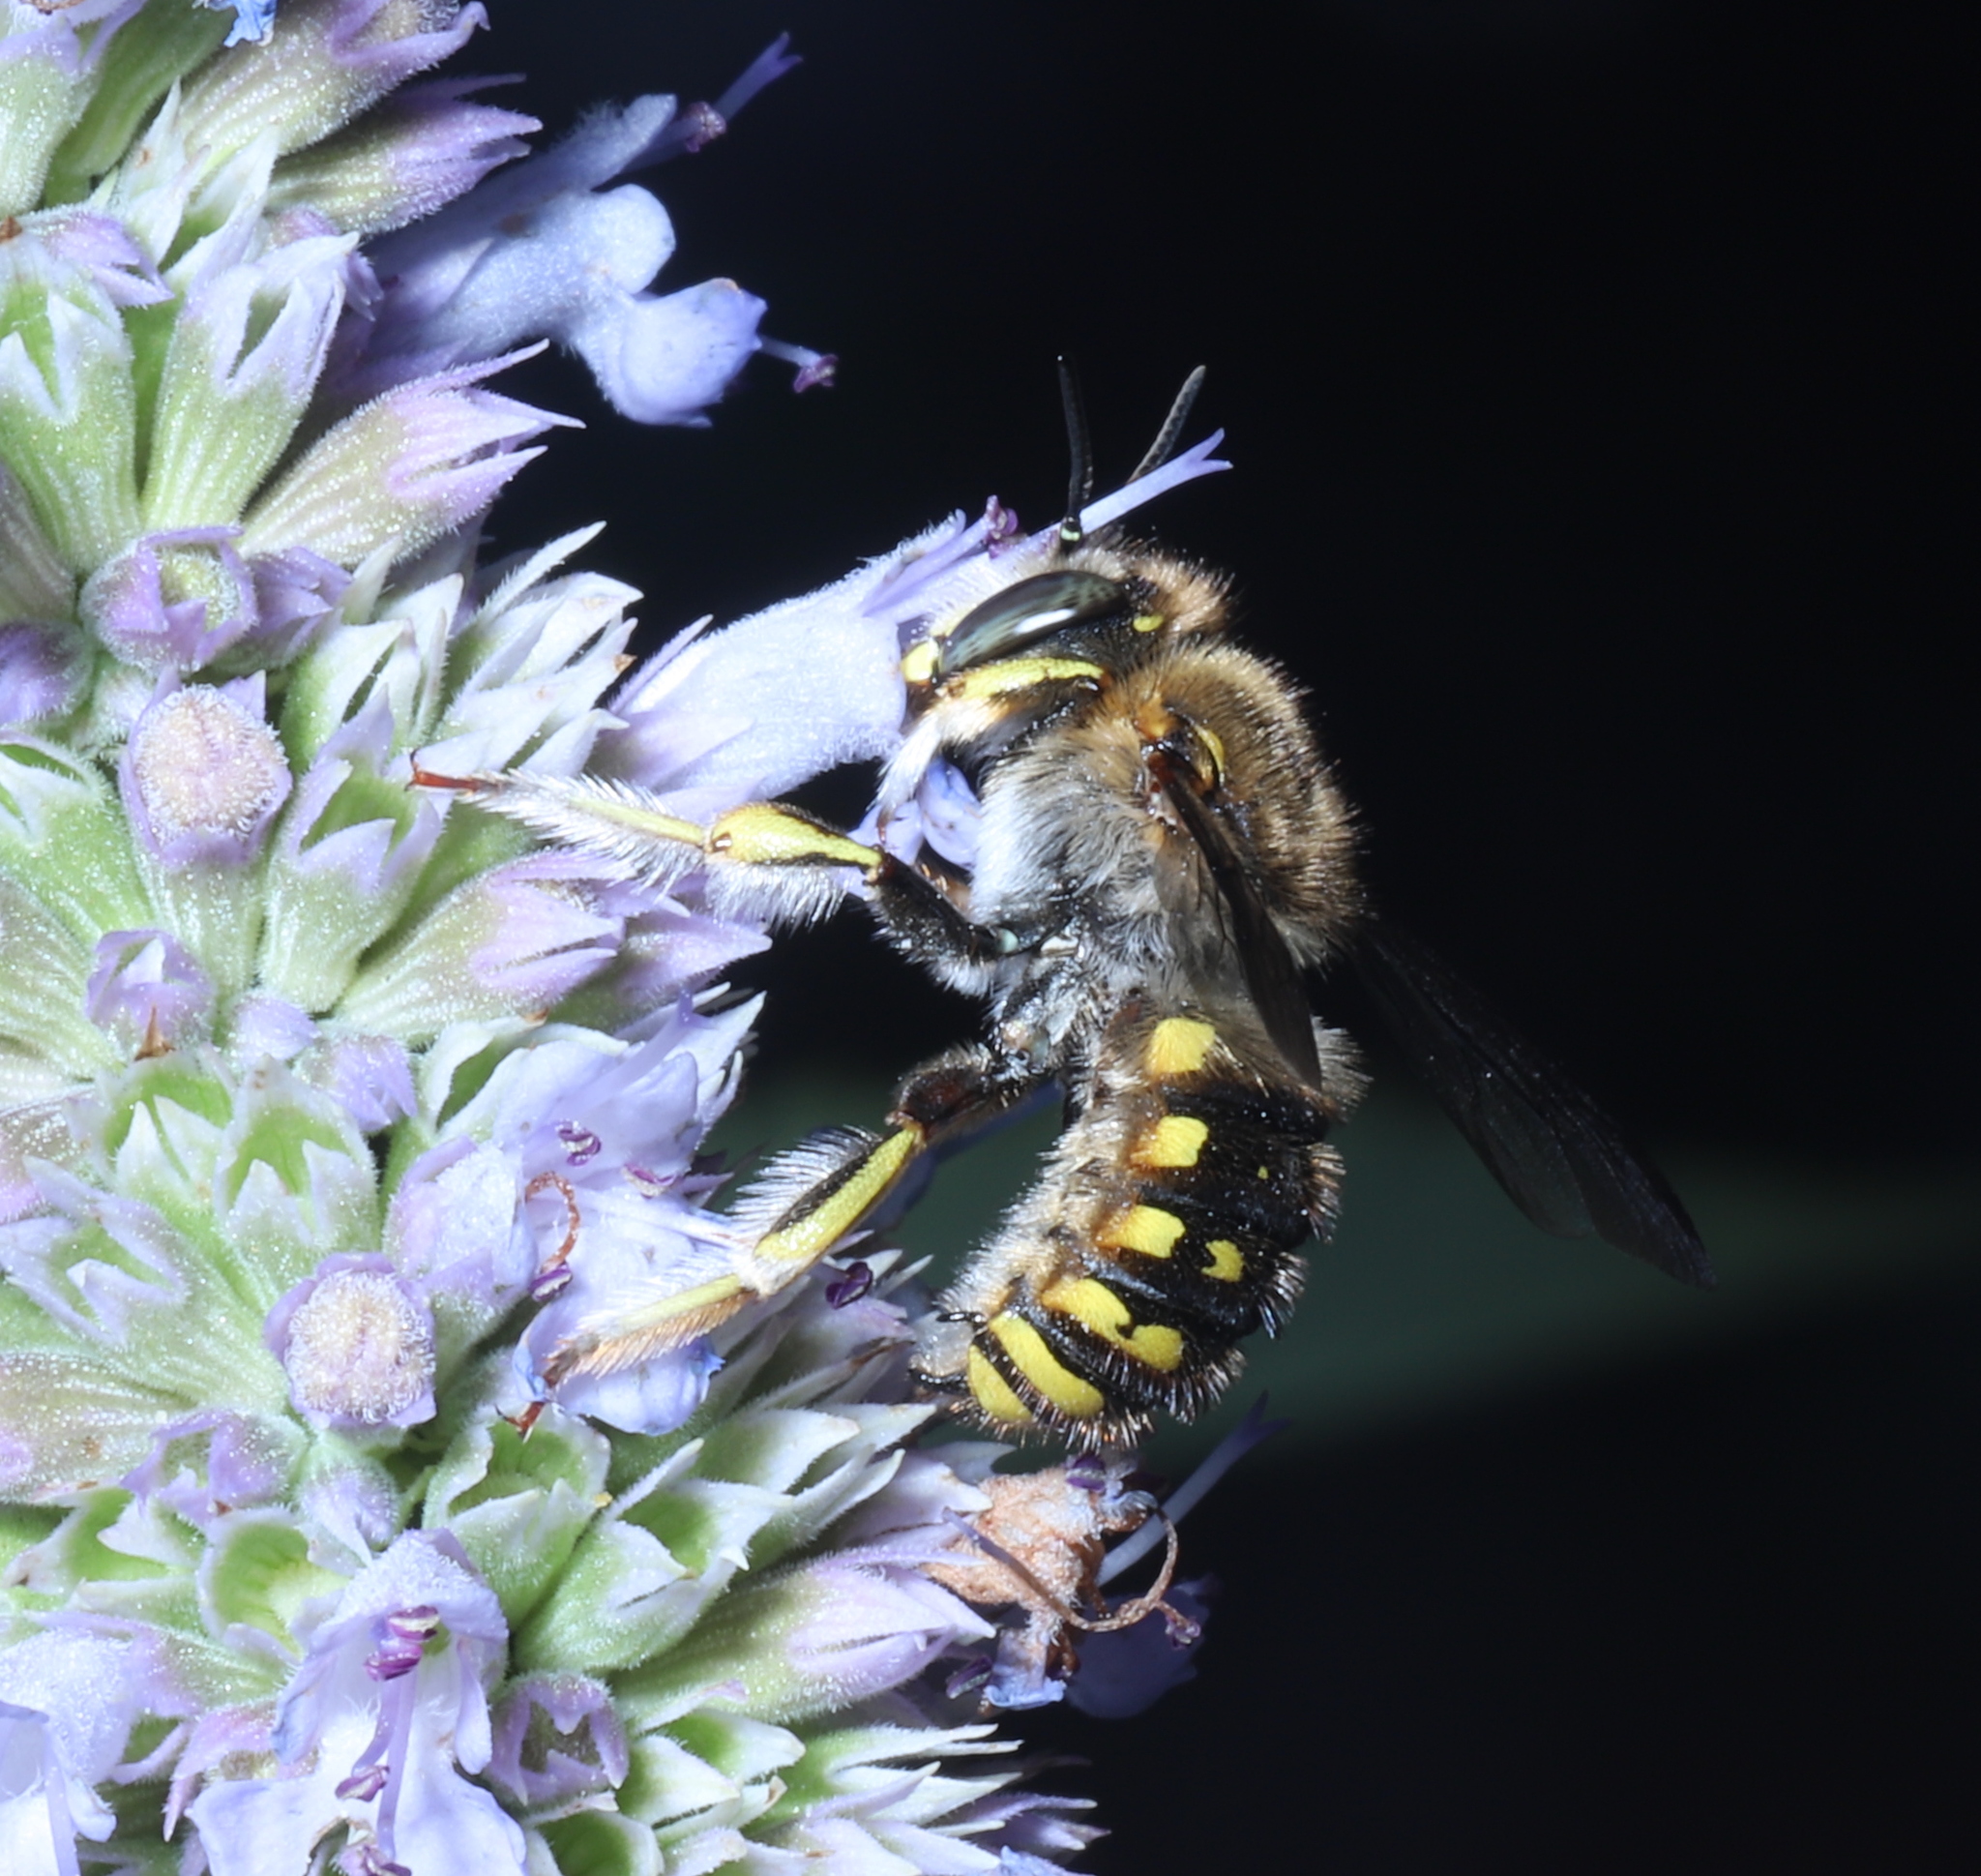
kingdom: Animalia
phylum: Arthropoda
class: Insecta
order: Hymenoptera
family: Megachilidae
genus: Anthidium
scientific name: Anthidium manicatum
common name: Wool carder bee
